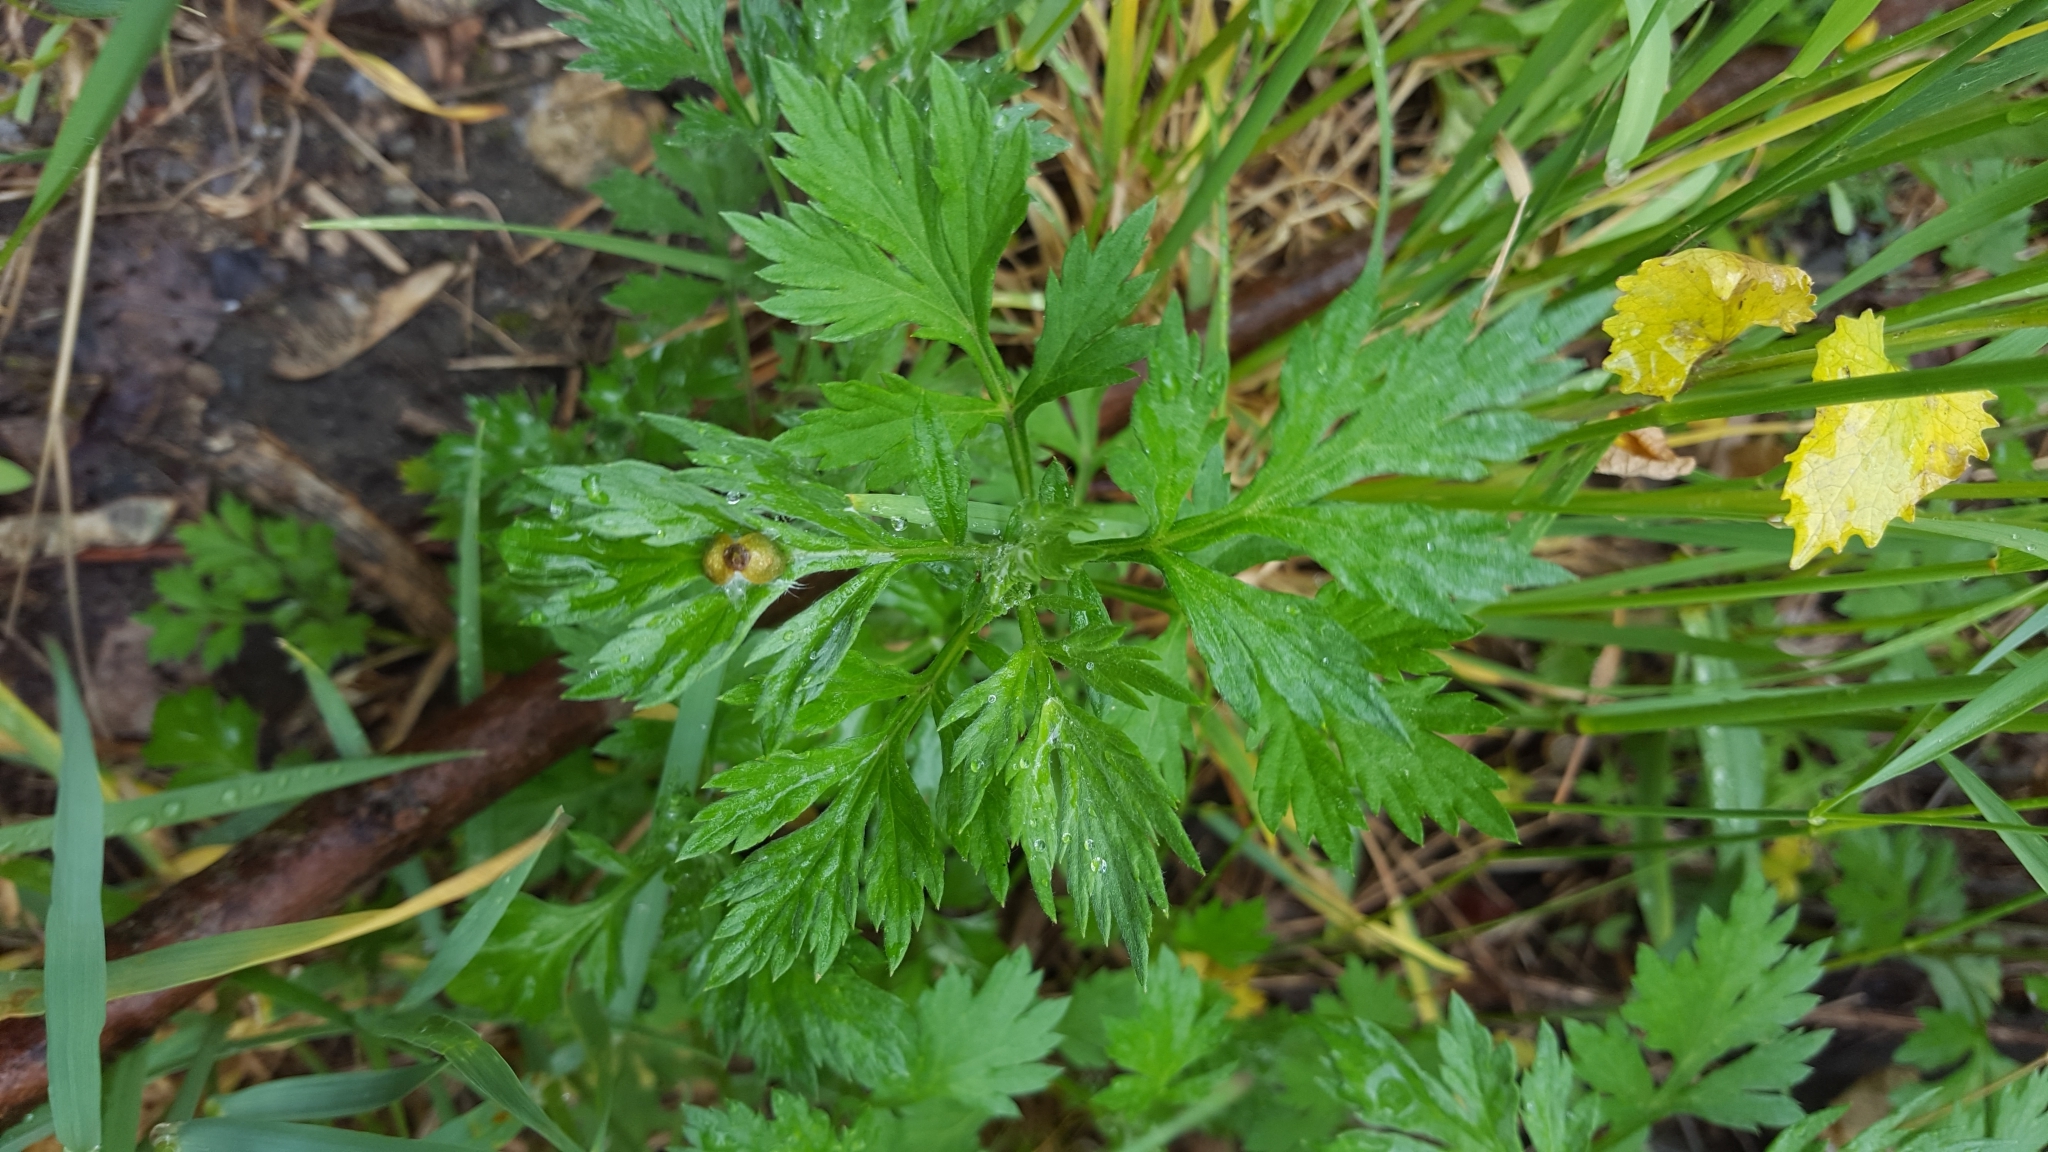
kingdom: Plantae
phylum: Tracheophyta
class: Magnoliopsida
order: Asterales
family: Asteraceae
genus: Artemisia
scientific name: Artemisia vulgaris
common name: Mugwort
